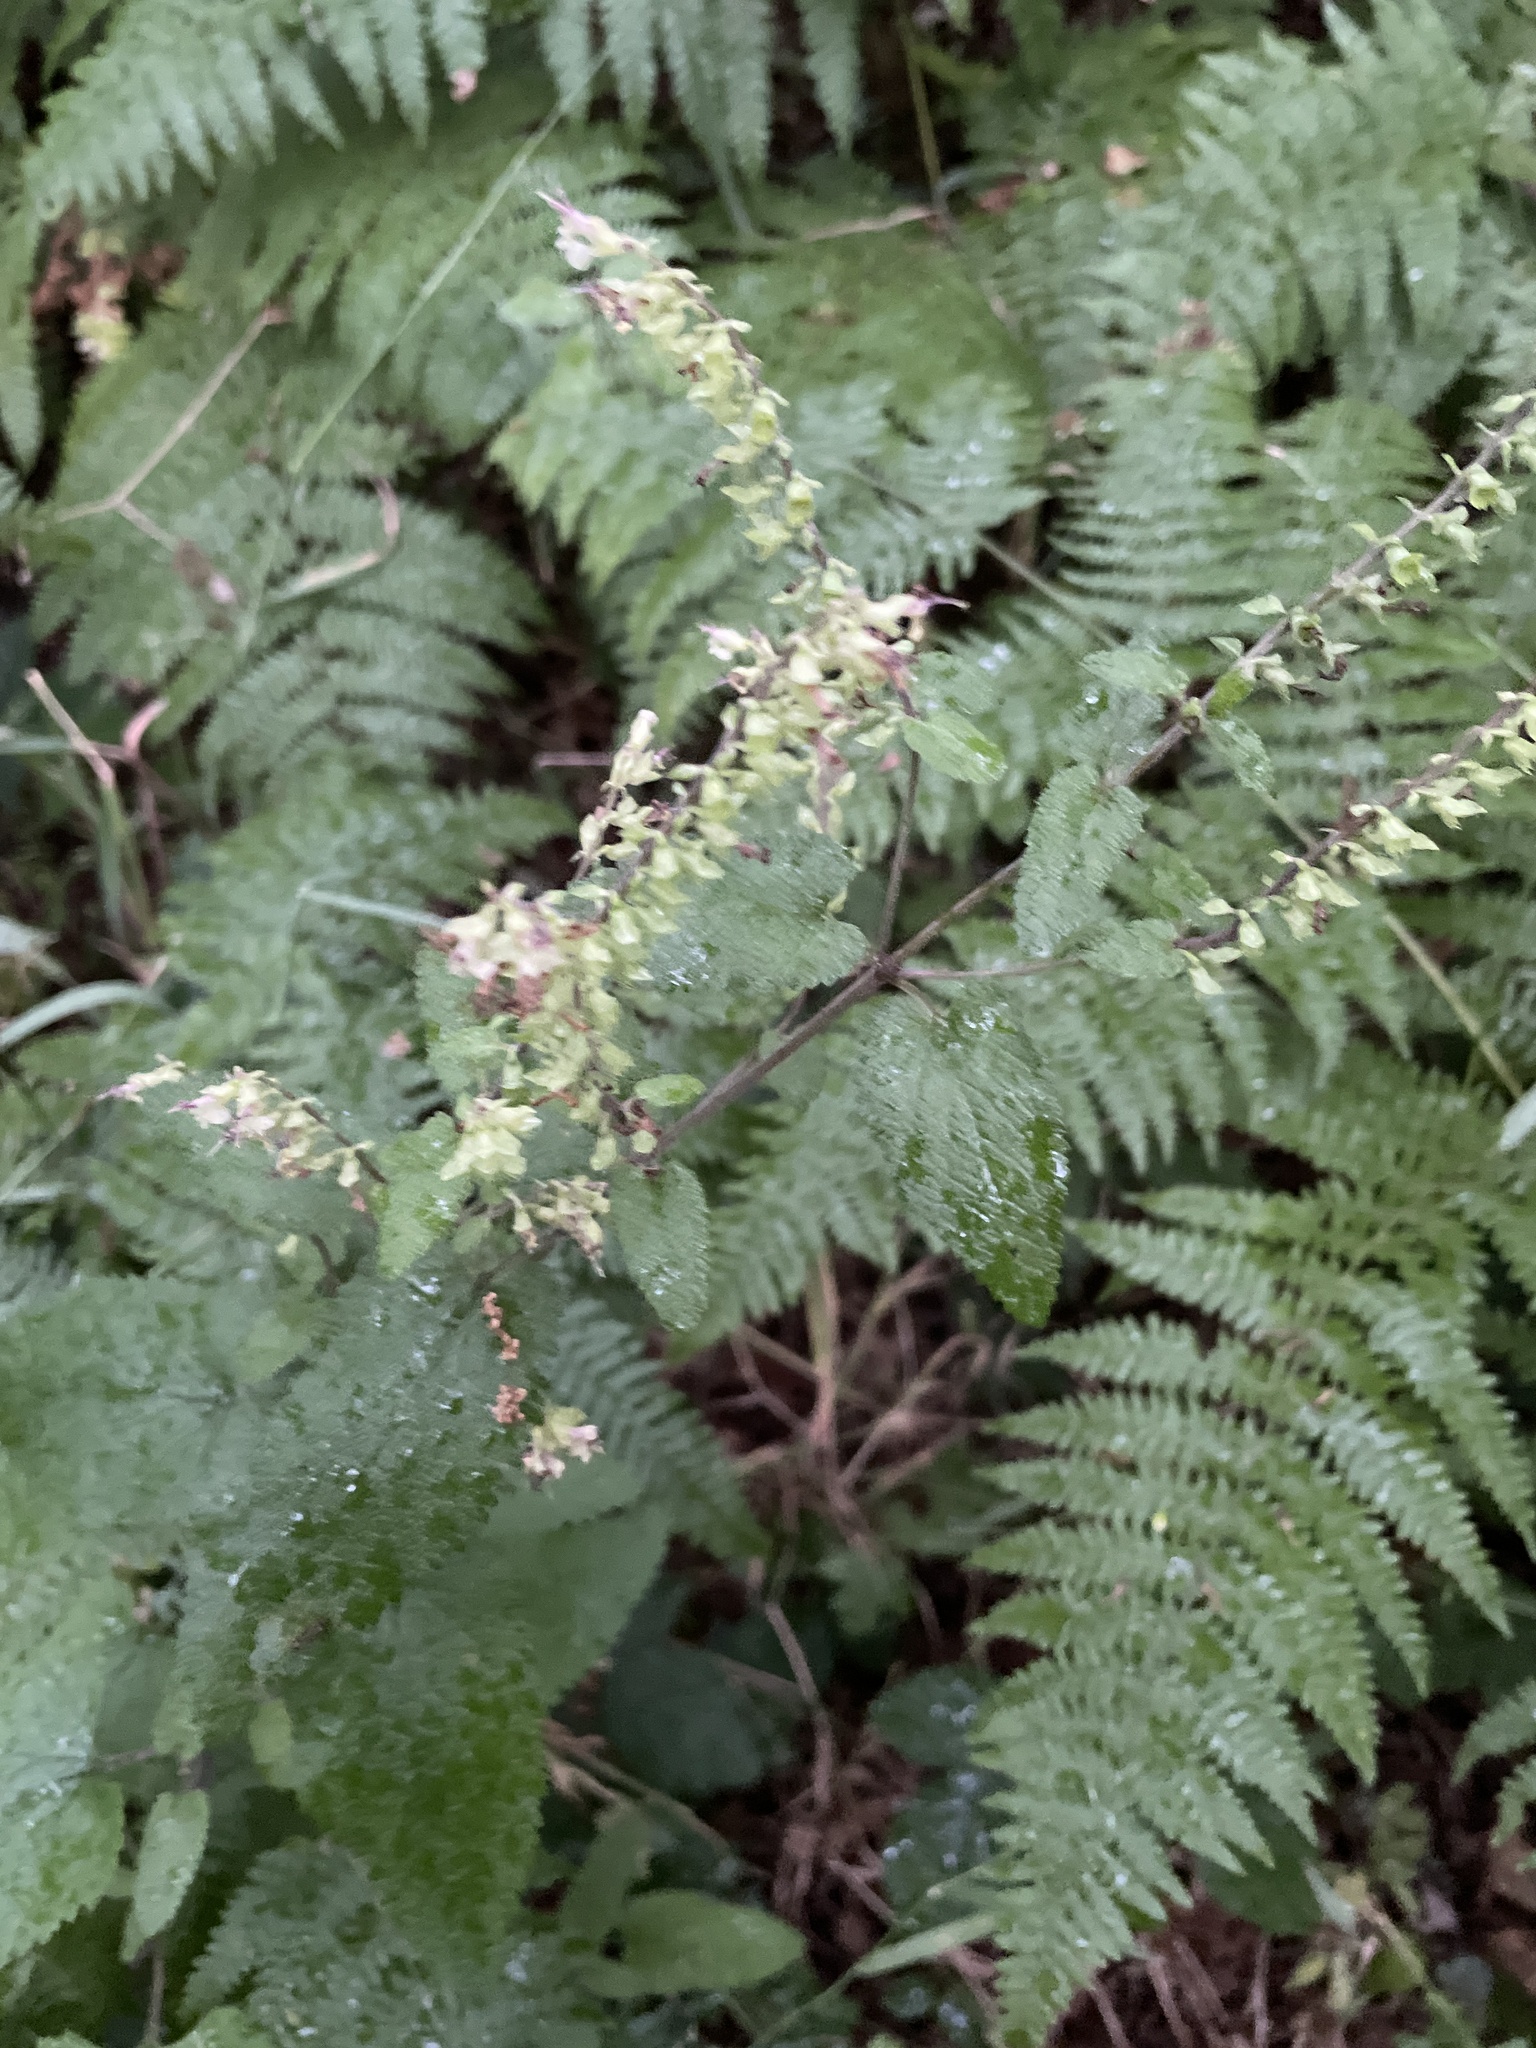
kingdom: Plantae
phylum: Tracheophyta
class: Magnoliopsida
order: Lamiales
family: Lamiaceae
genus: Teucrium
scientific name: Teucrium scorodonia
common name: Woodland germander
